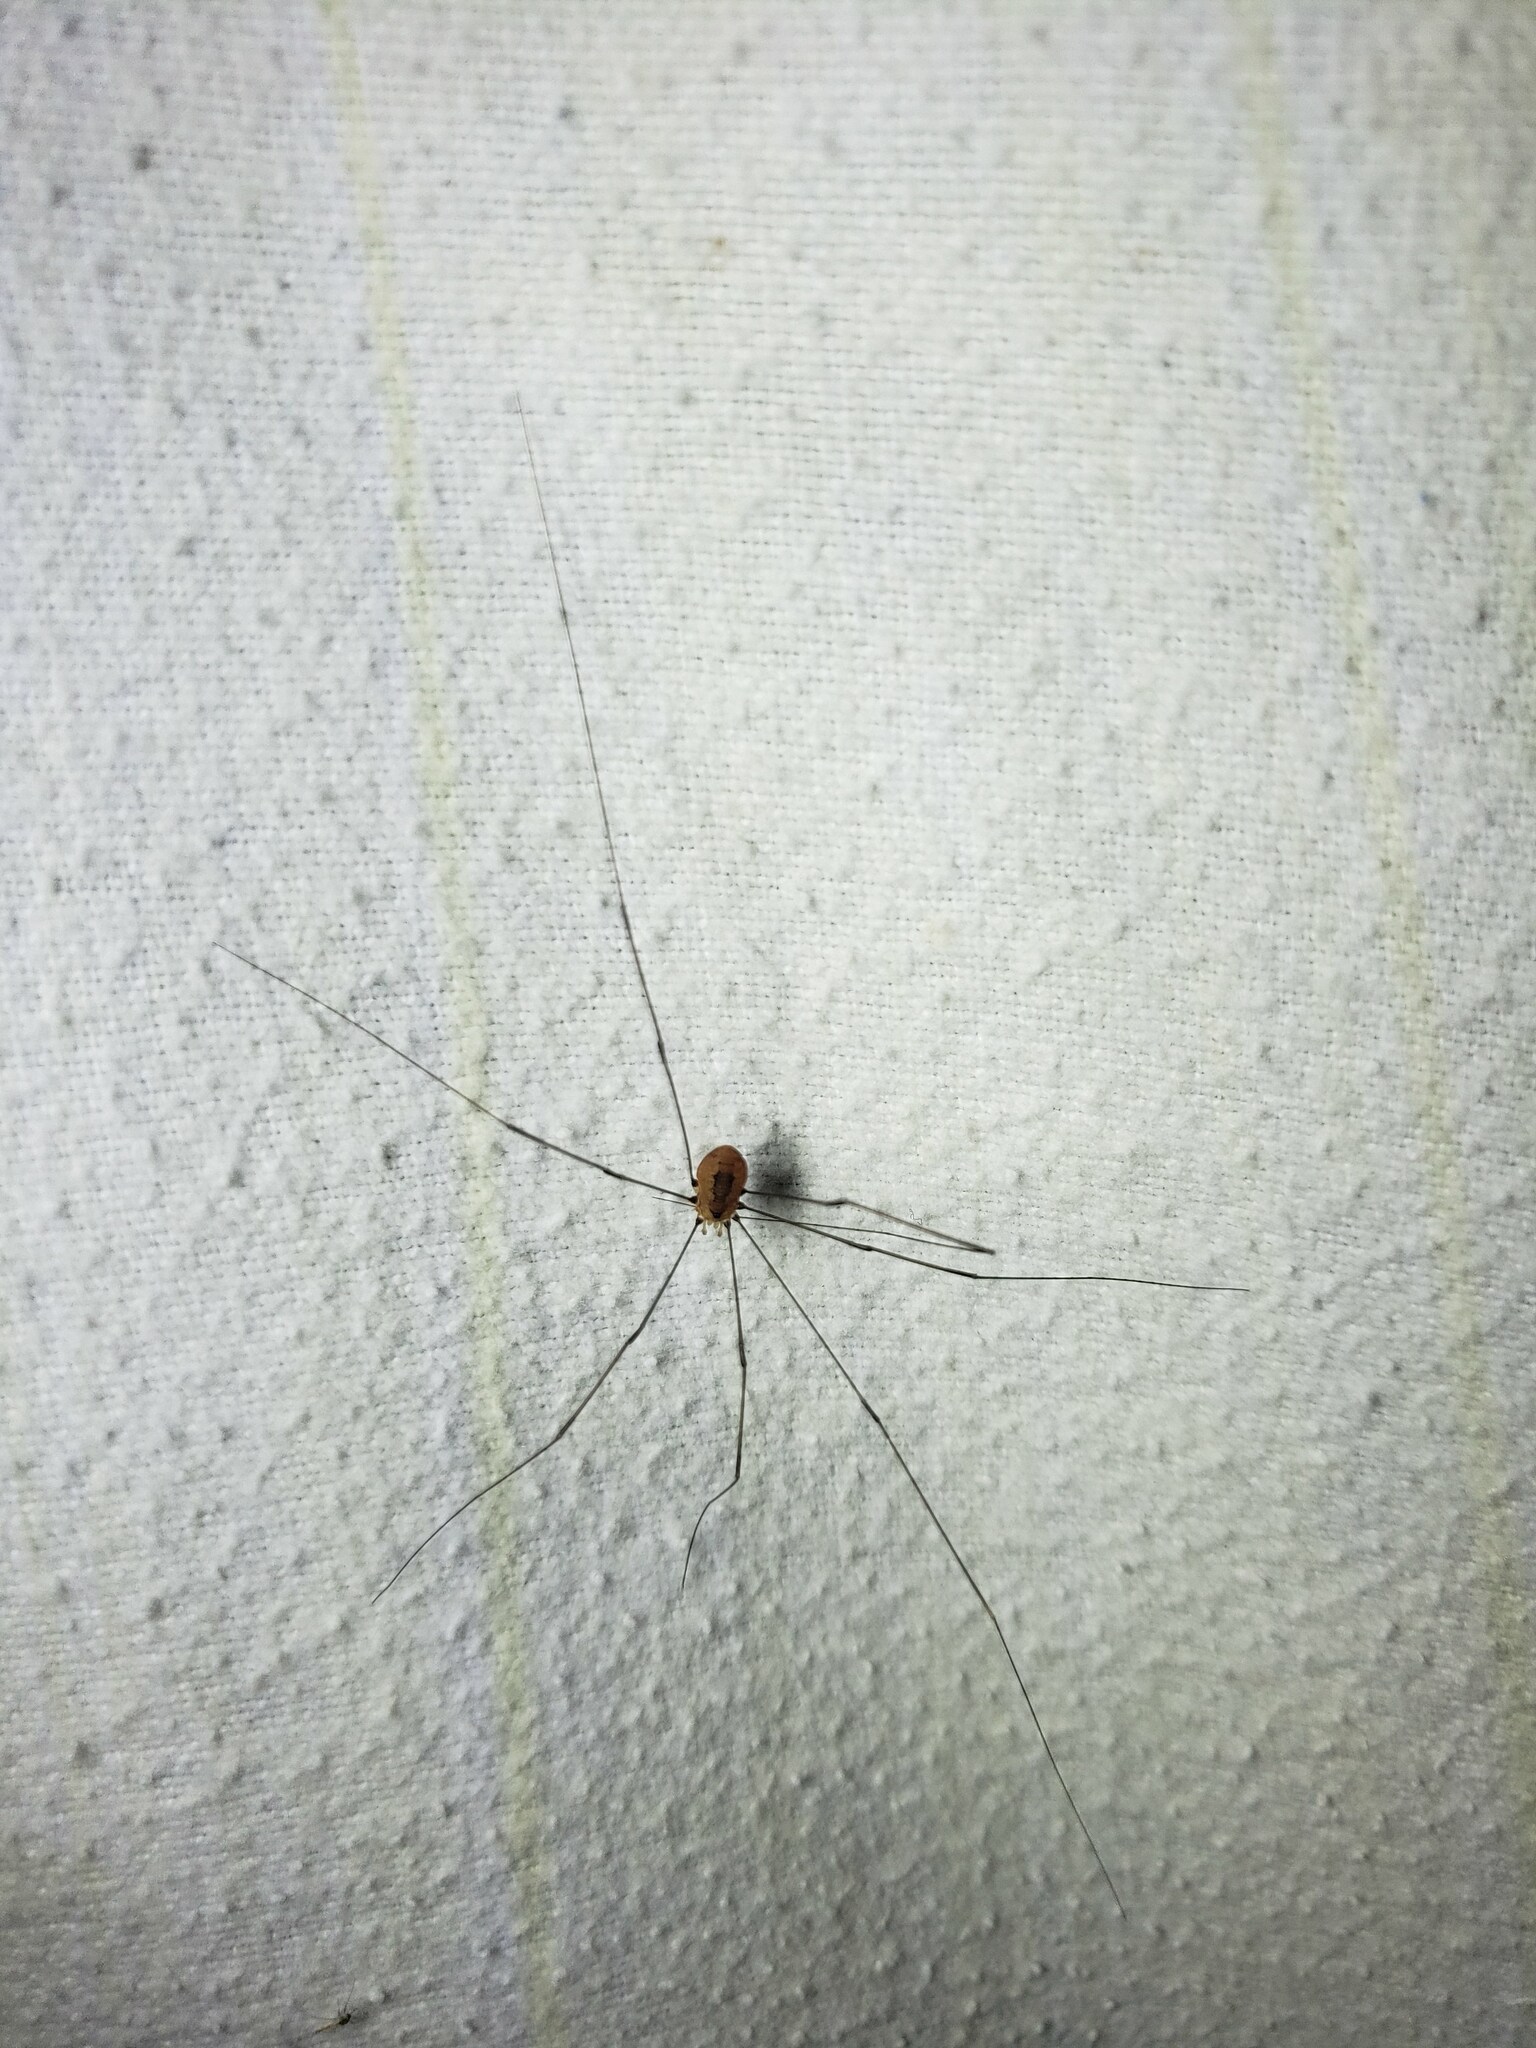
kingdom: Animalia
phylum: Arthropoda
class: Arachnida
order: Opiliones
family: Sclerosomatidae
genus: Leiobunum
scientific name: Leiobunum aldrichi
